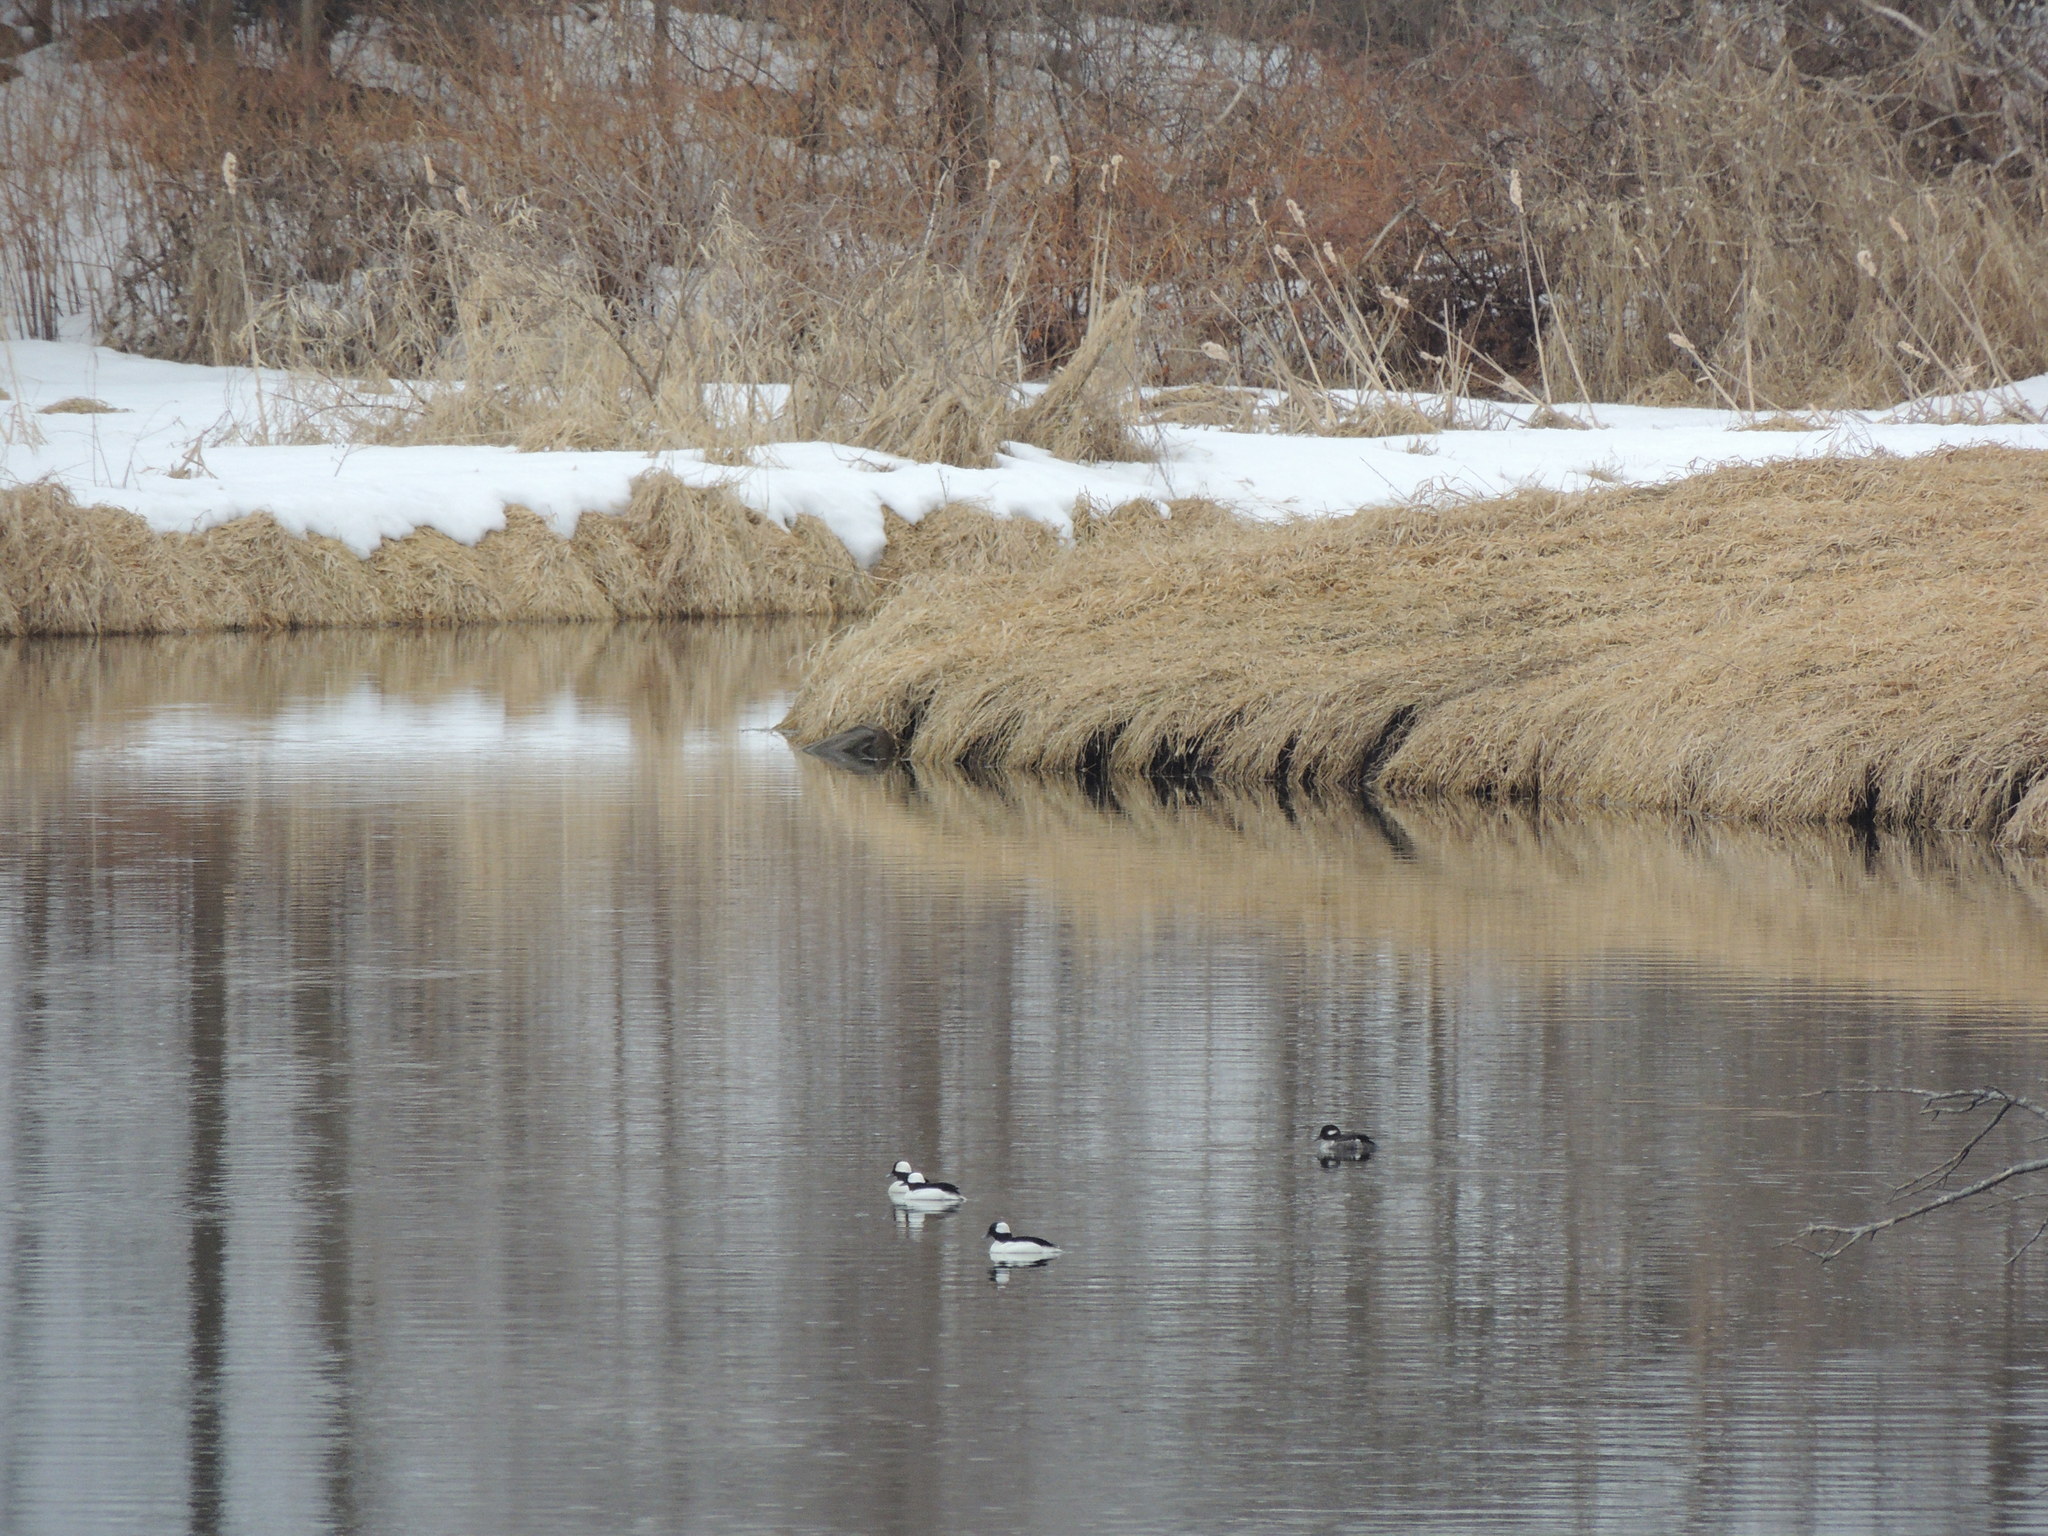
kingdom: Animalia
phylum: Chordata
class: Aves
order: Anseriformes
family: Anatidae
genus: Bucephala
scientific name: Bucephala albeola
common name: Bufflehead
